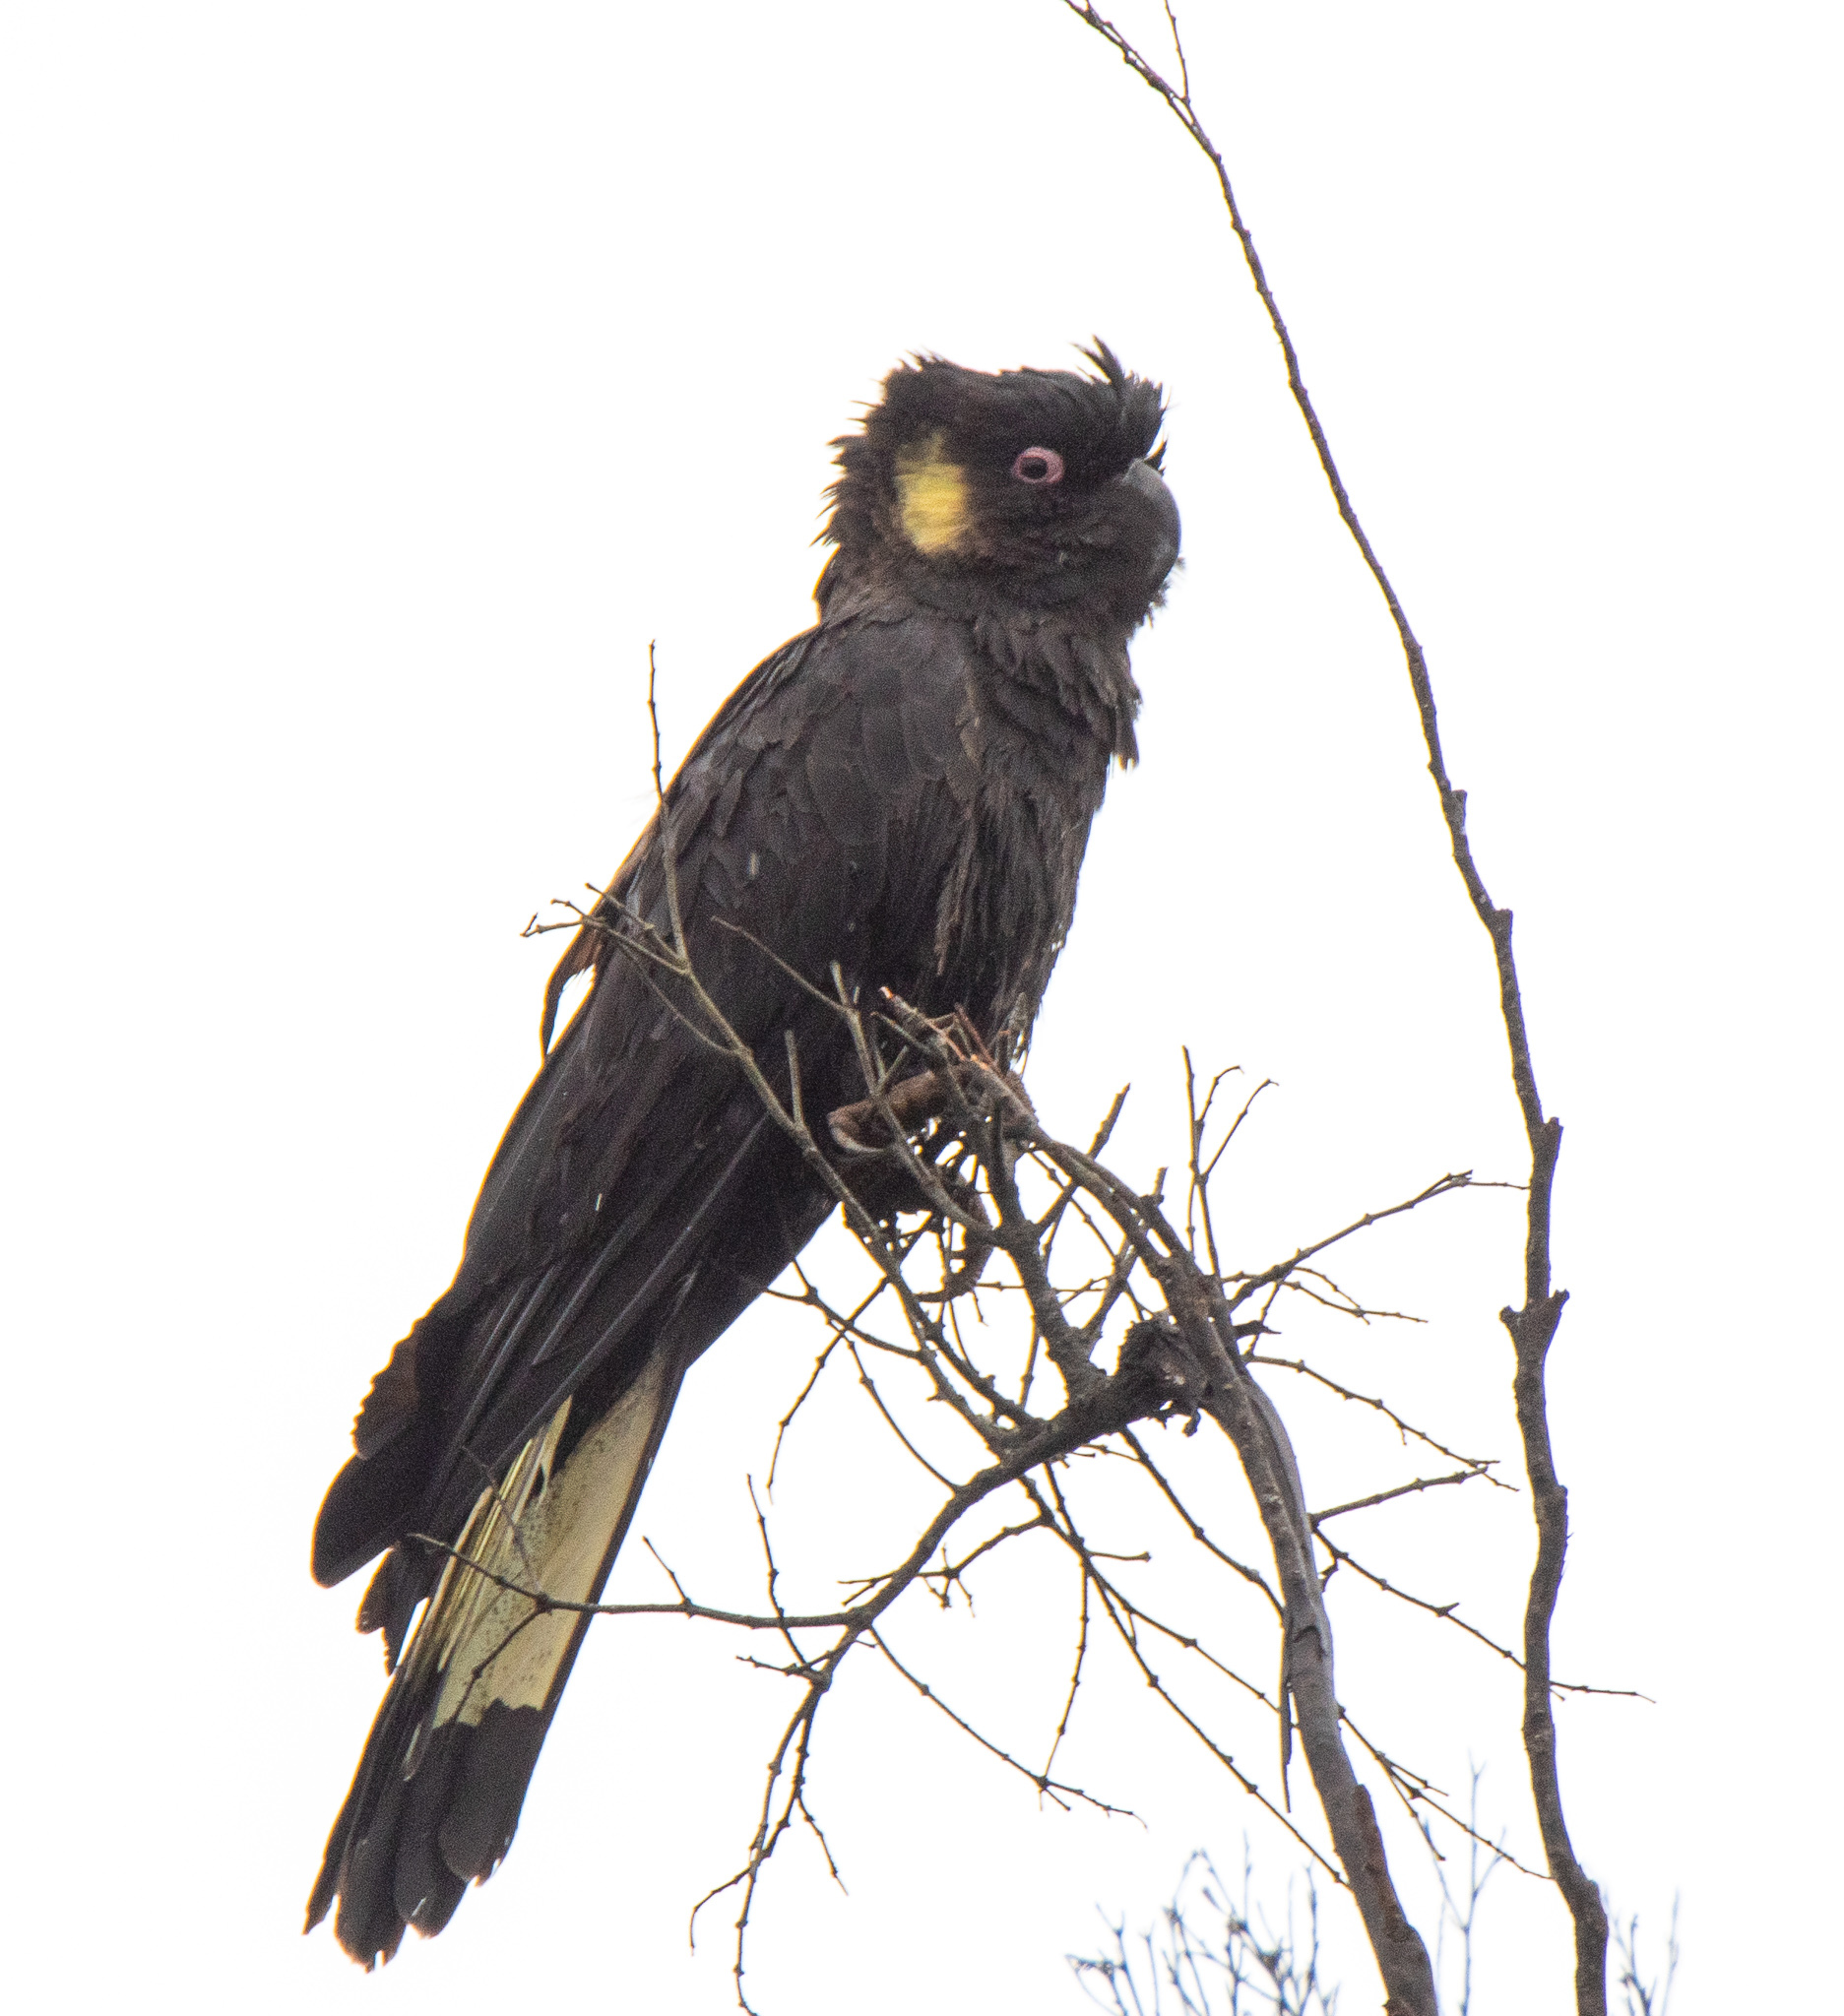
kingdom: Animalia
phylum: Chordata
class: Aves
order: Psittaciformes
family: Cacatuidae
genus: Zanda
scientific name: Zanda funerea
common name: Yellow-tailed black-cockatoo
